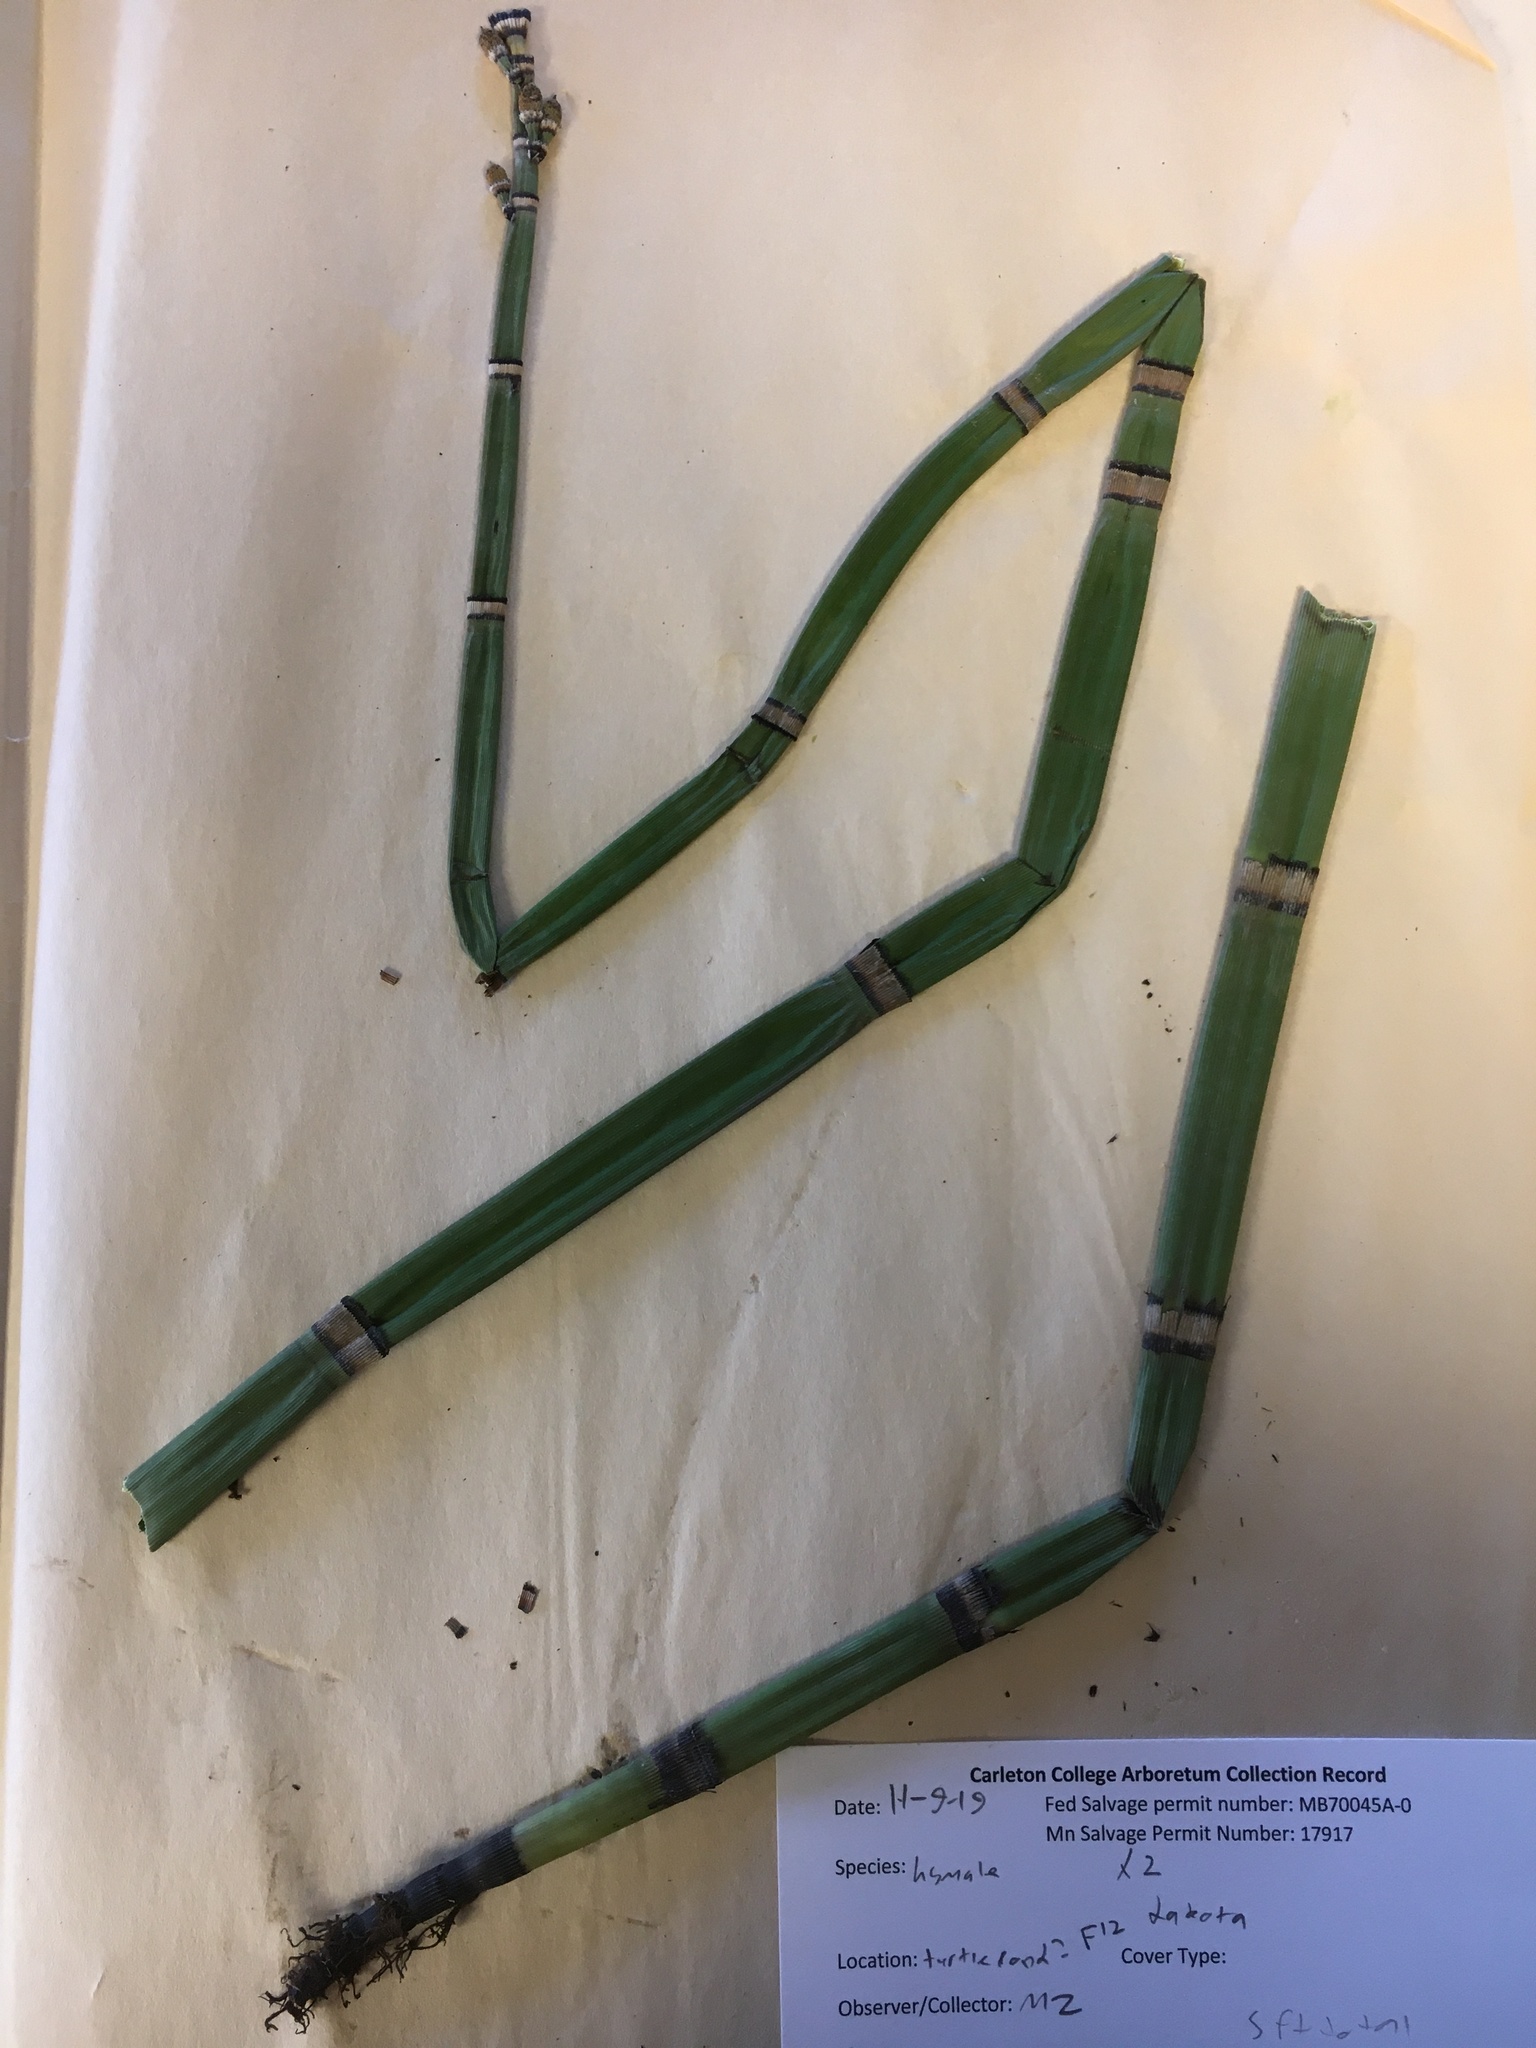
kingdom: Plantae
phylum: Tracheophyta
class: Polypodiopsida
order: Equisetales
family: Equisetaceae
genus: Equisetum
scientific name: Equisetum praealtum
